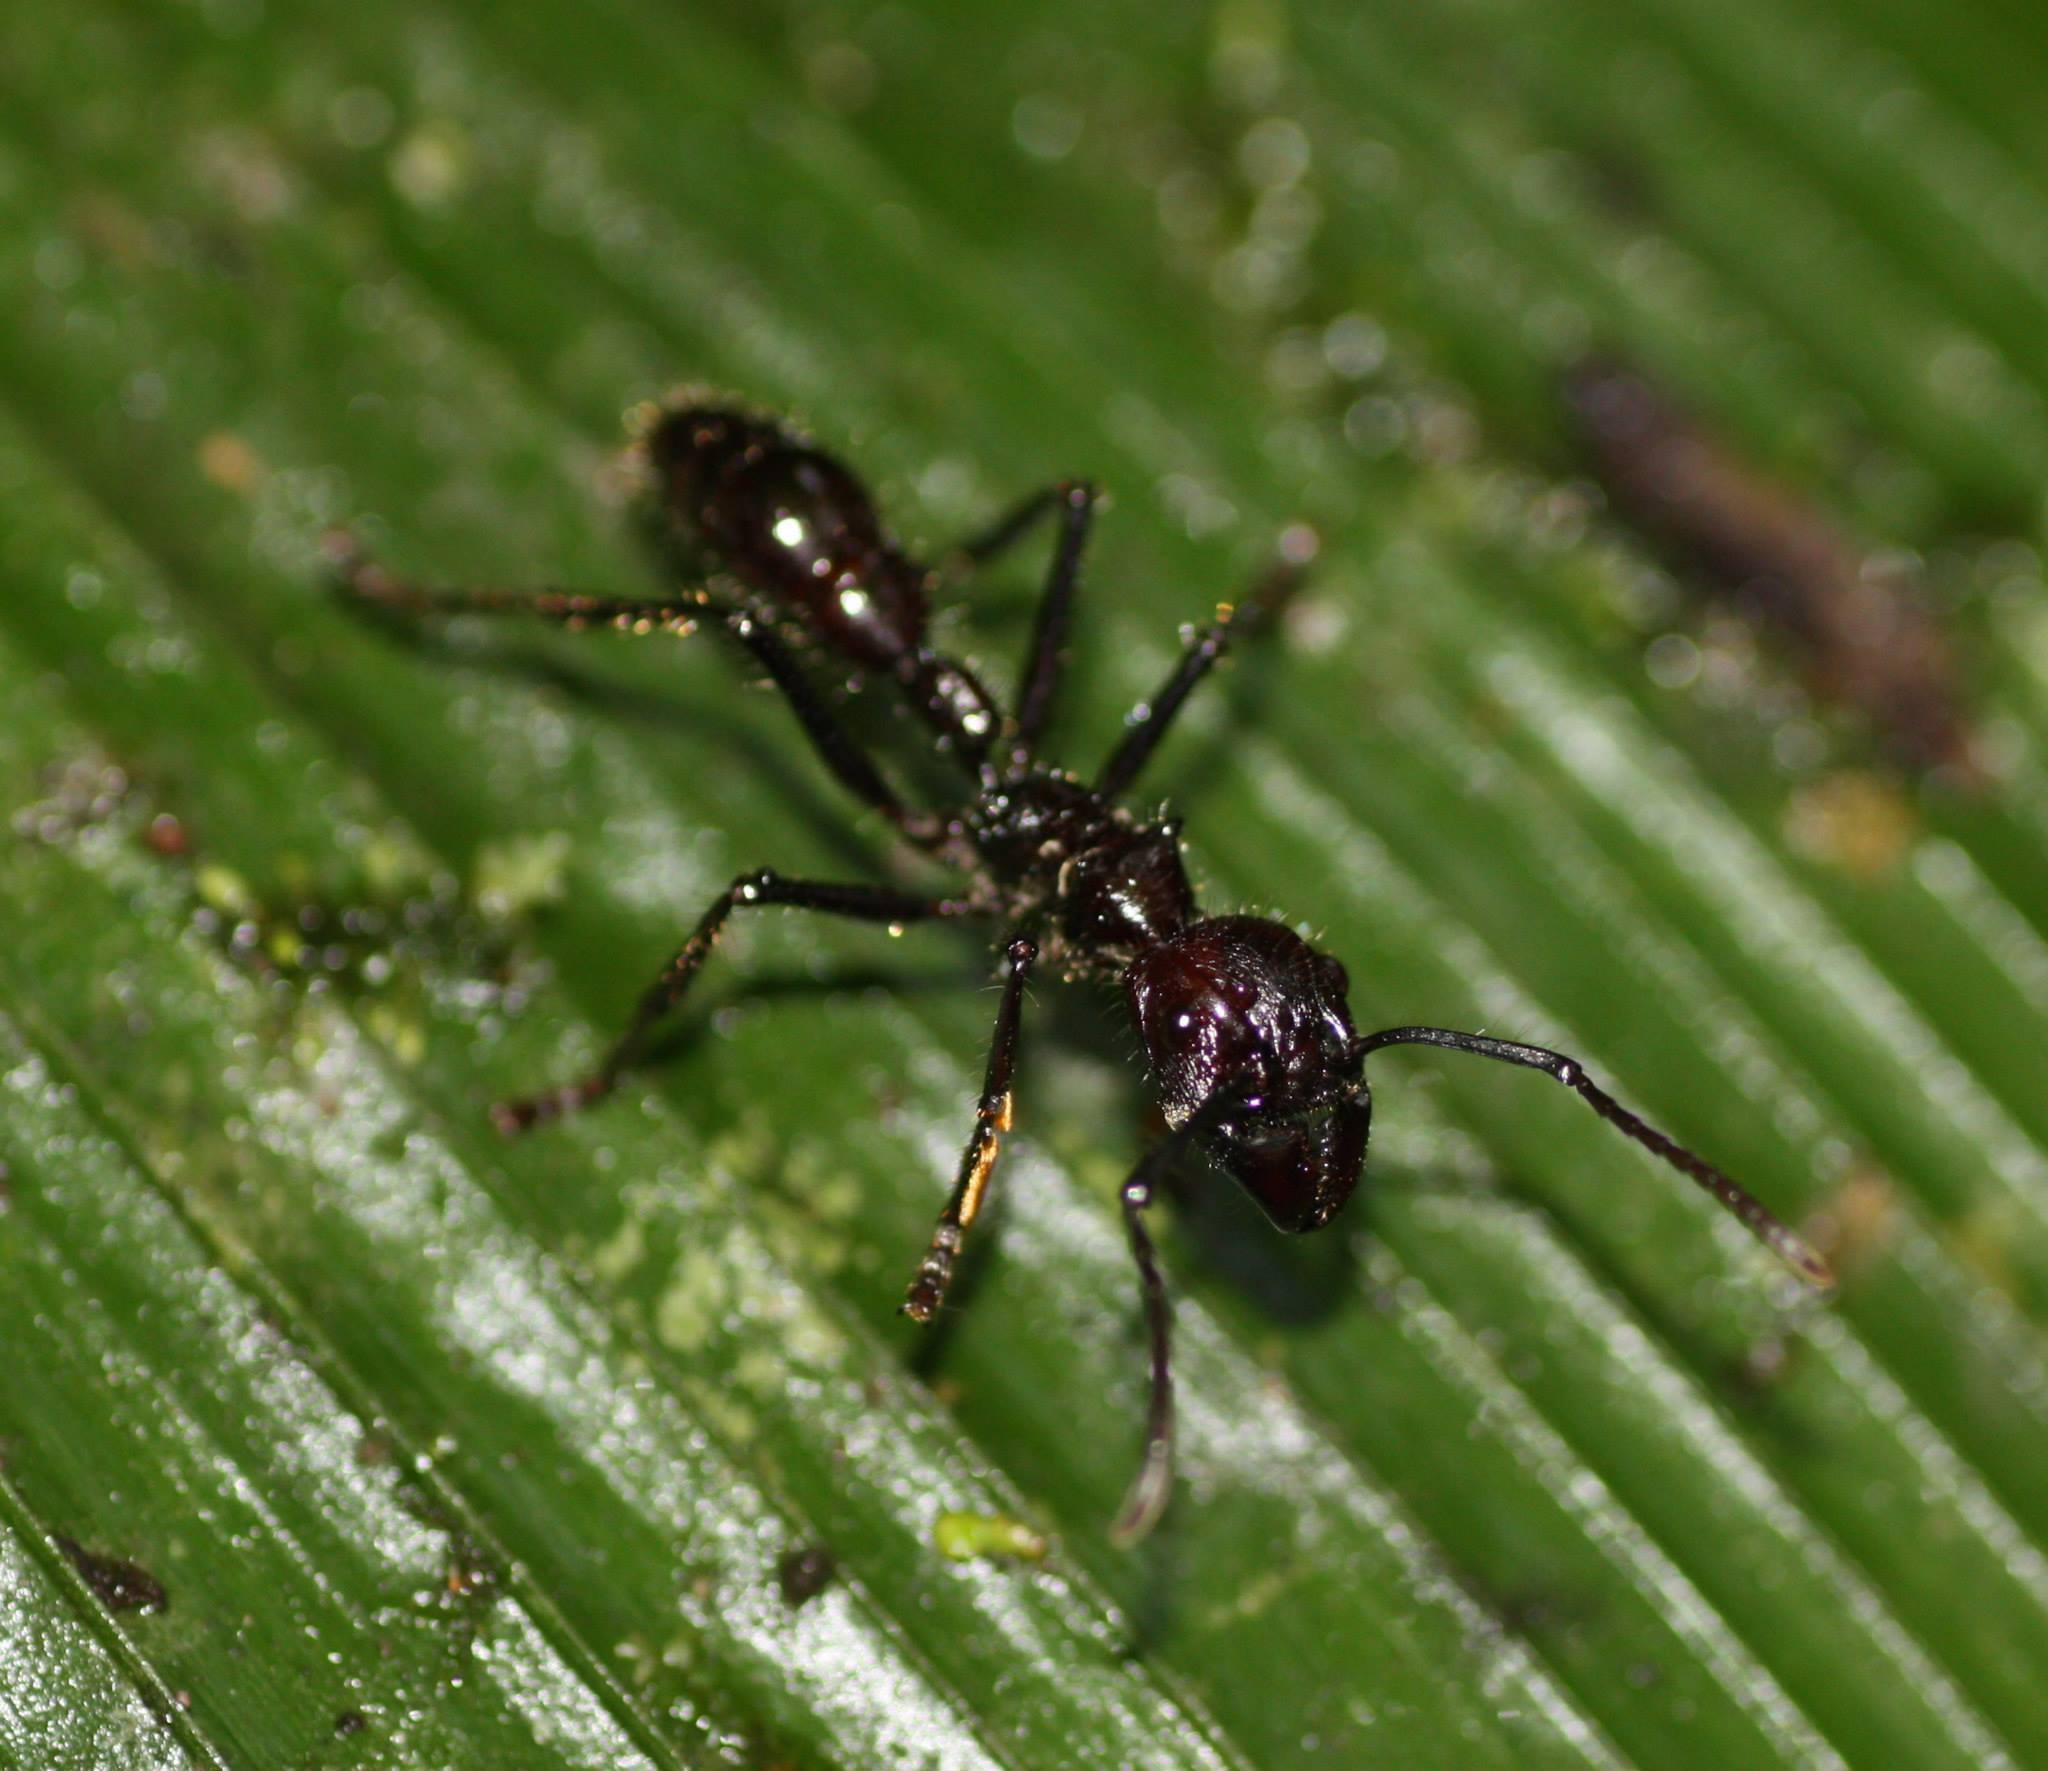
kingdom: Animalia
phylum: Arthropoda
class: Insecta
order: Hymenoptera
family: Formicidae
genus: Paraponera
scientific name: Paraponera clavata
